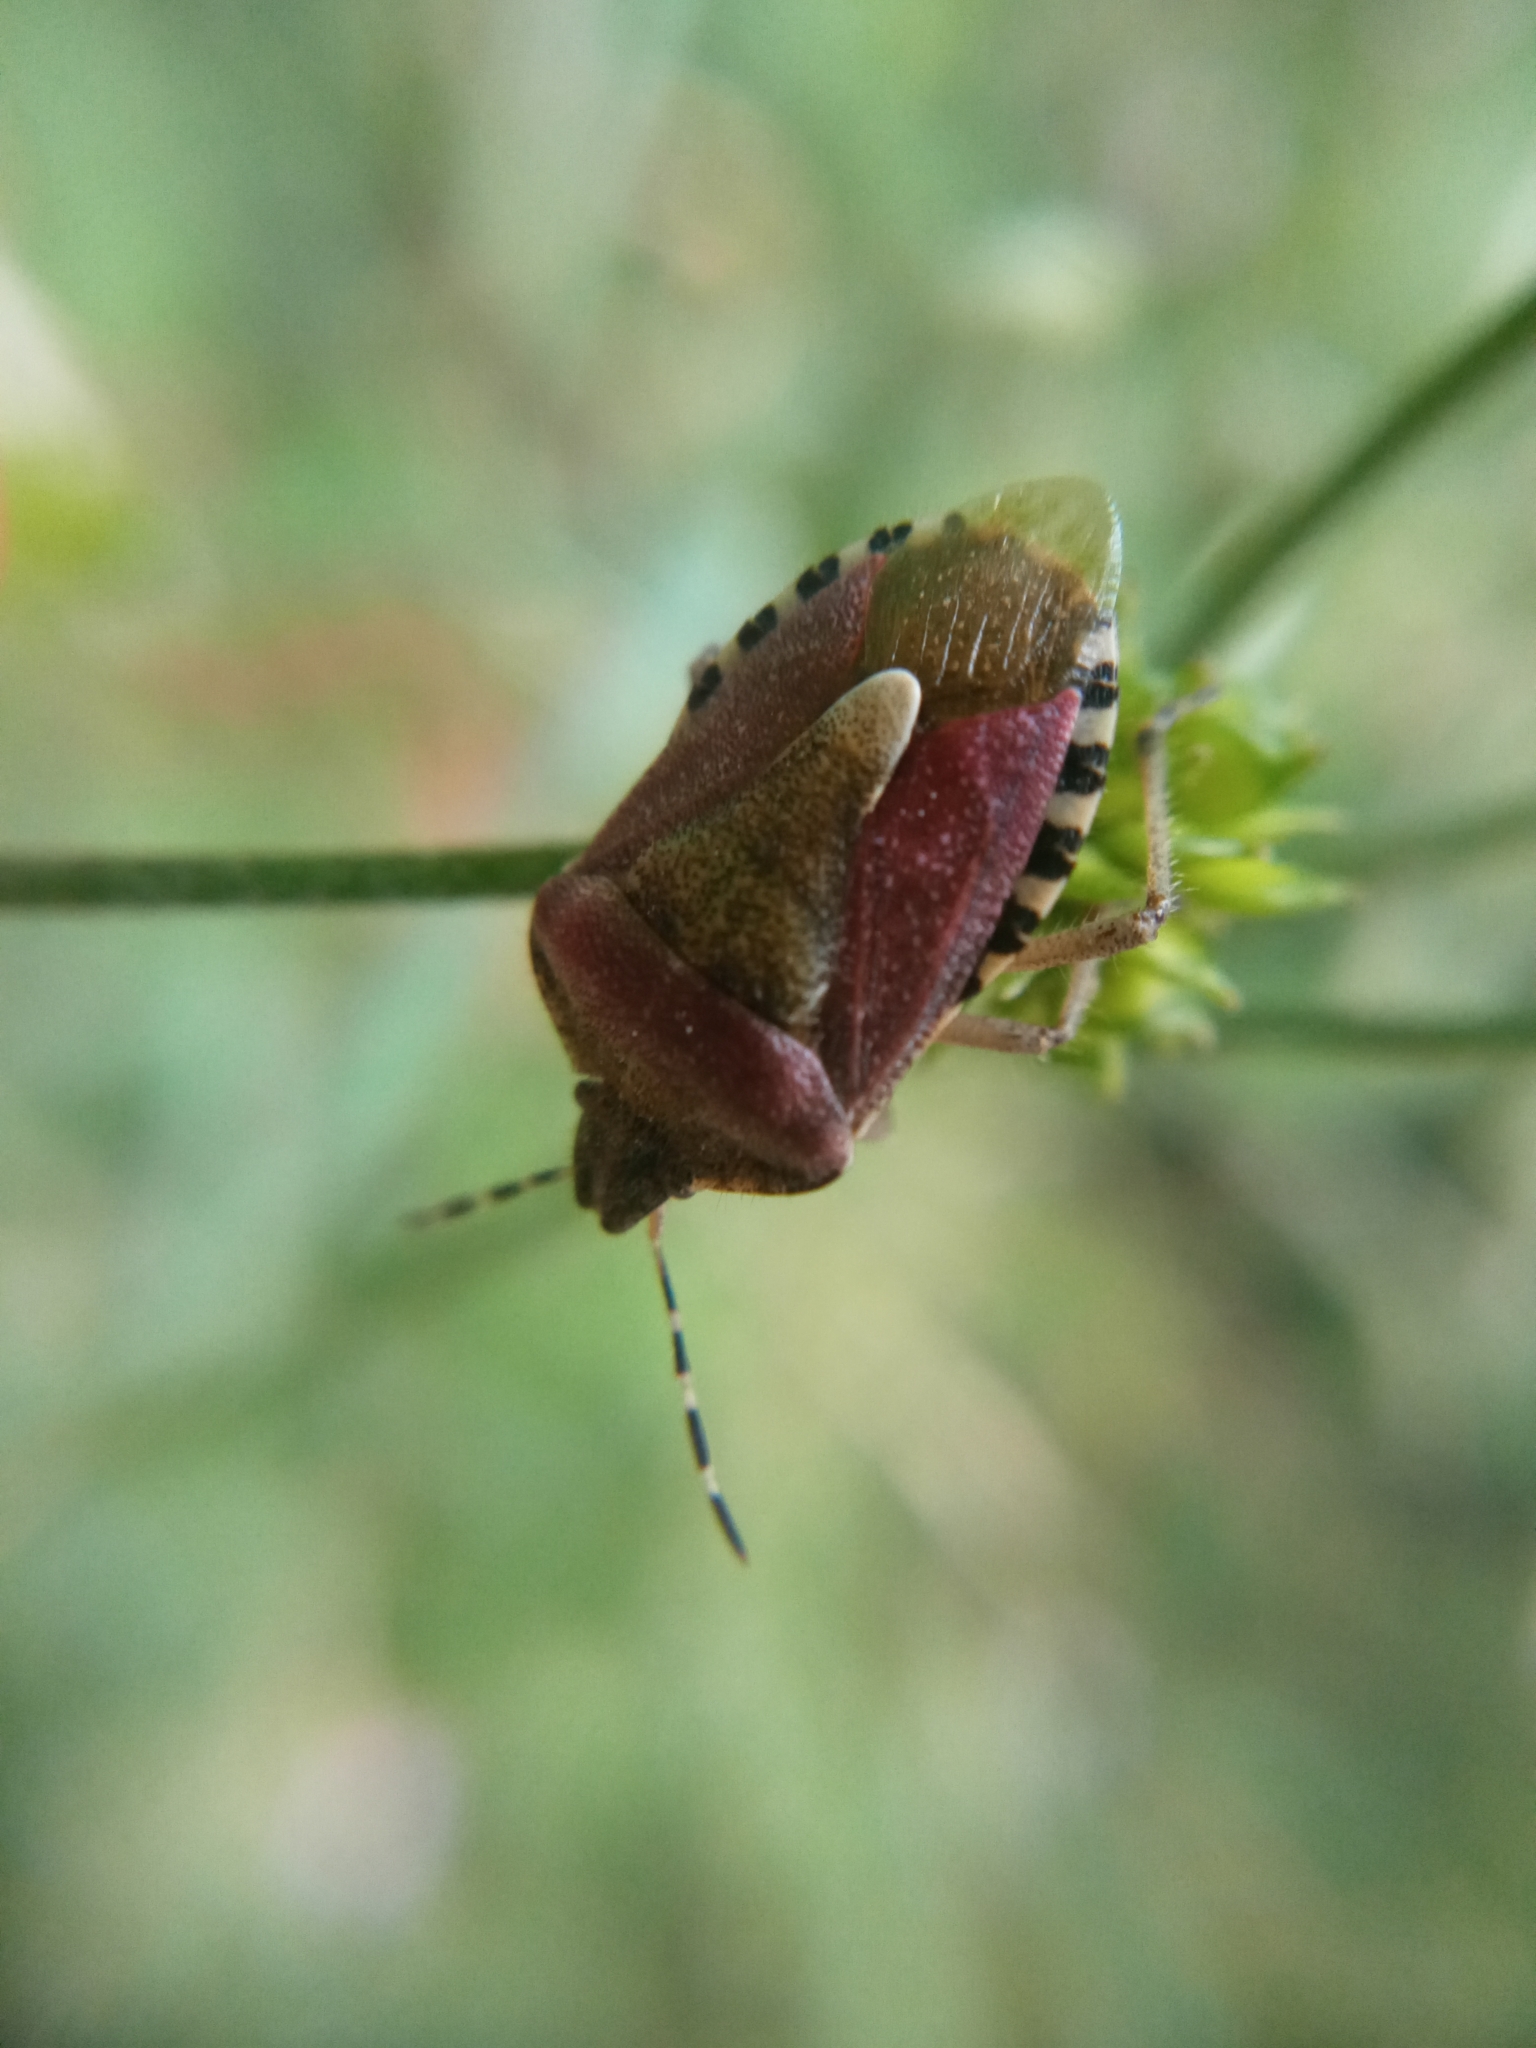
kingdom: Animalia
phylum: Arthropoda
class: Insecta
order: Hemiptera
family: Pentatomidae
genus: Dolycoris
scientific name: Dolycoris baccarum
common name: Sloe bug
